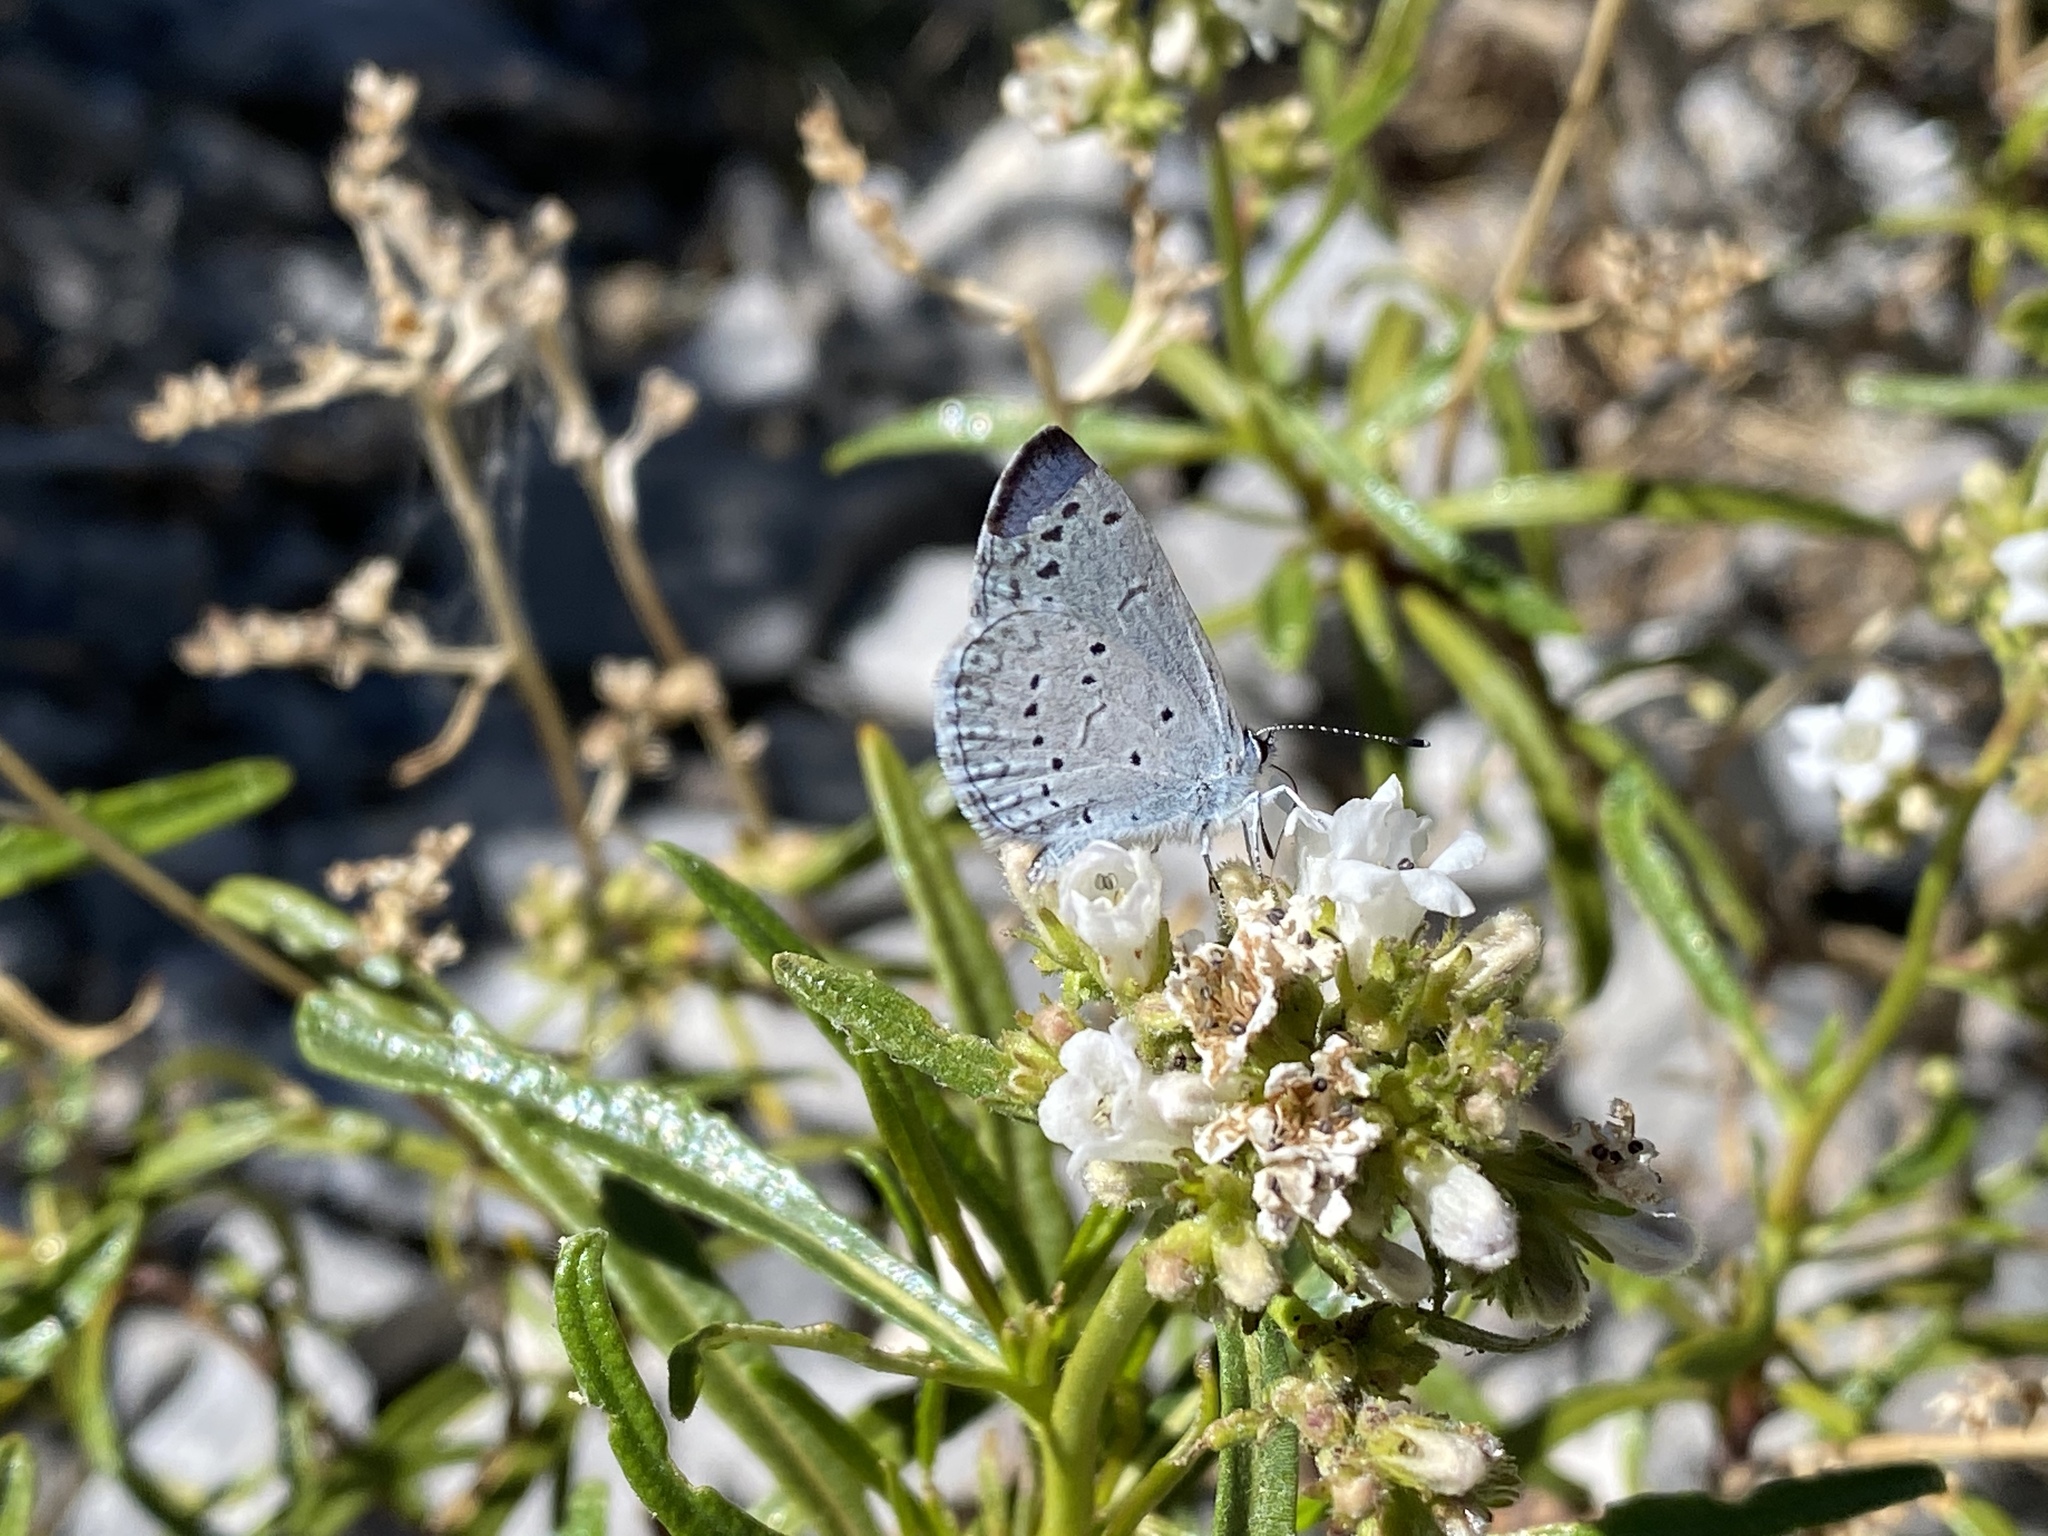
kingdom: Animalia
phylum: Arthropoda
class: Insecta
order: Lepidoptera
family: Lycaenidae
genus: Celastrina
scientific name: Celastrina ladon
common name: Spring azure
